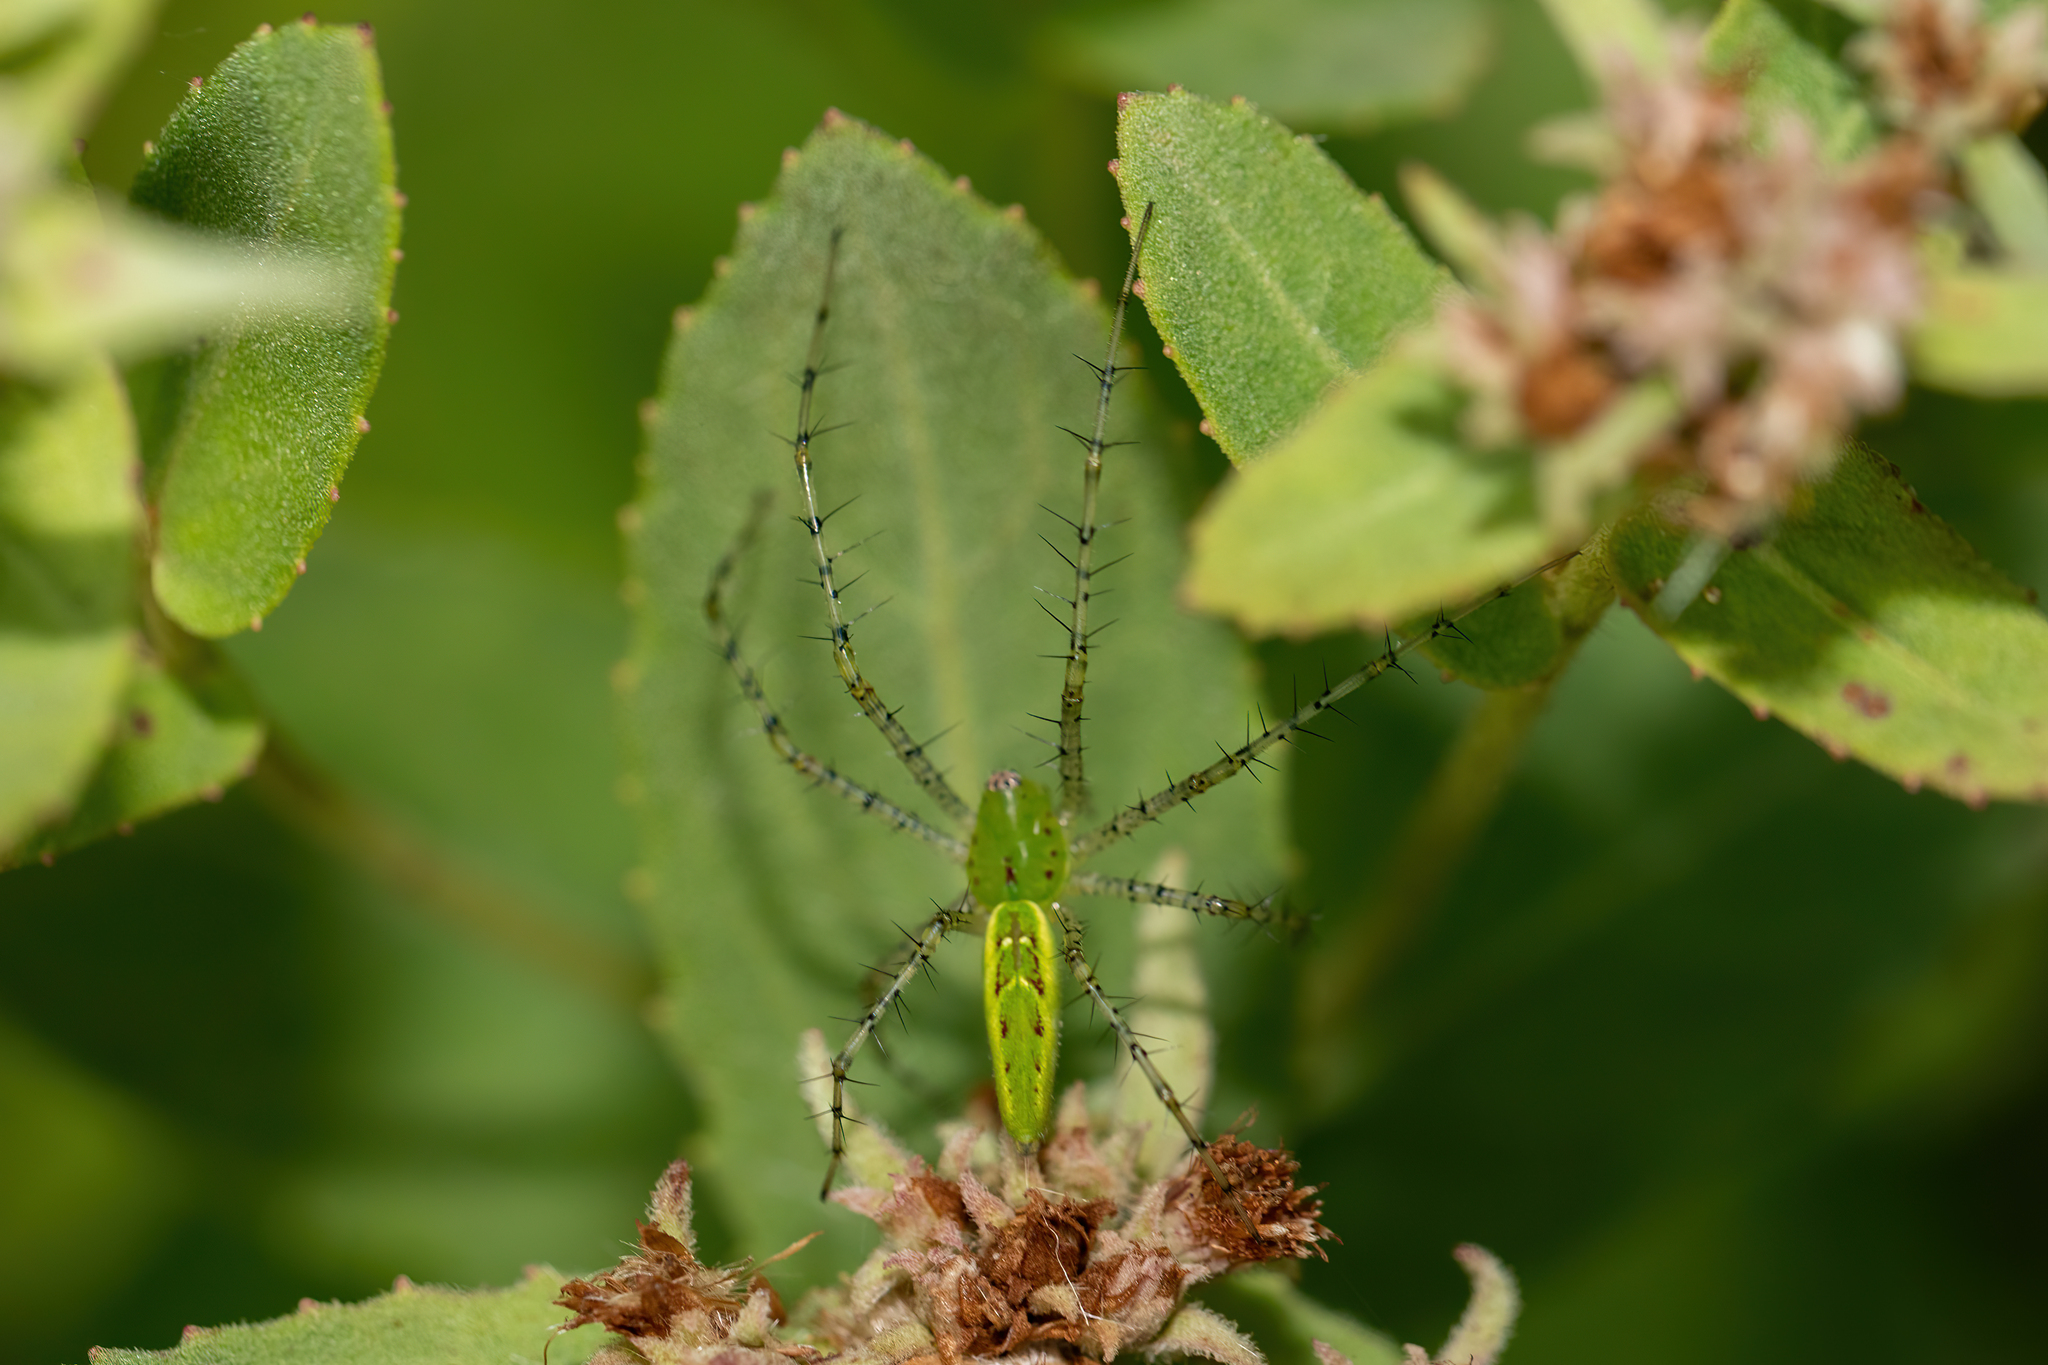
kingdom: Animalia
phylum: Arthropoda
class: Arachnida
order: Araneae
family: Oxyopidae
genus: Peucetia
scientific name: Peucetia viridans
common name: Lynx spiders
